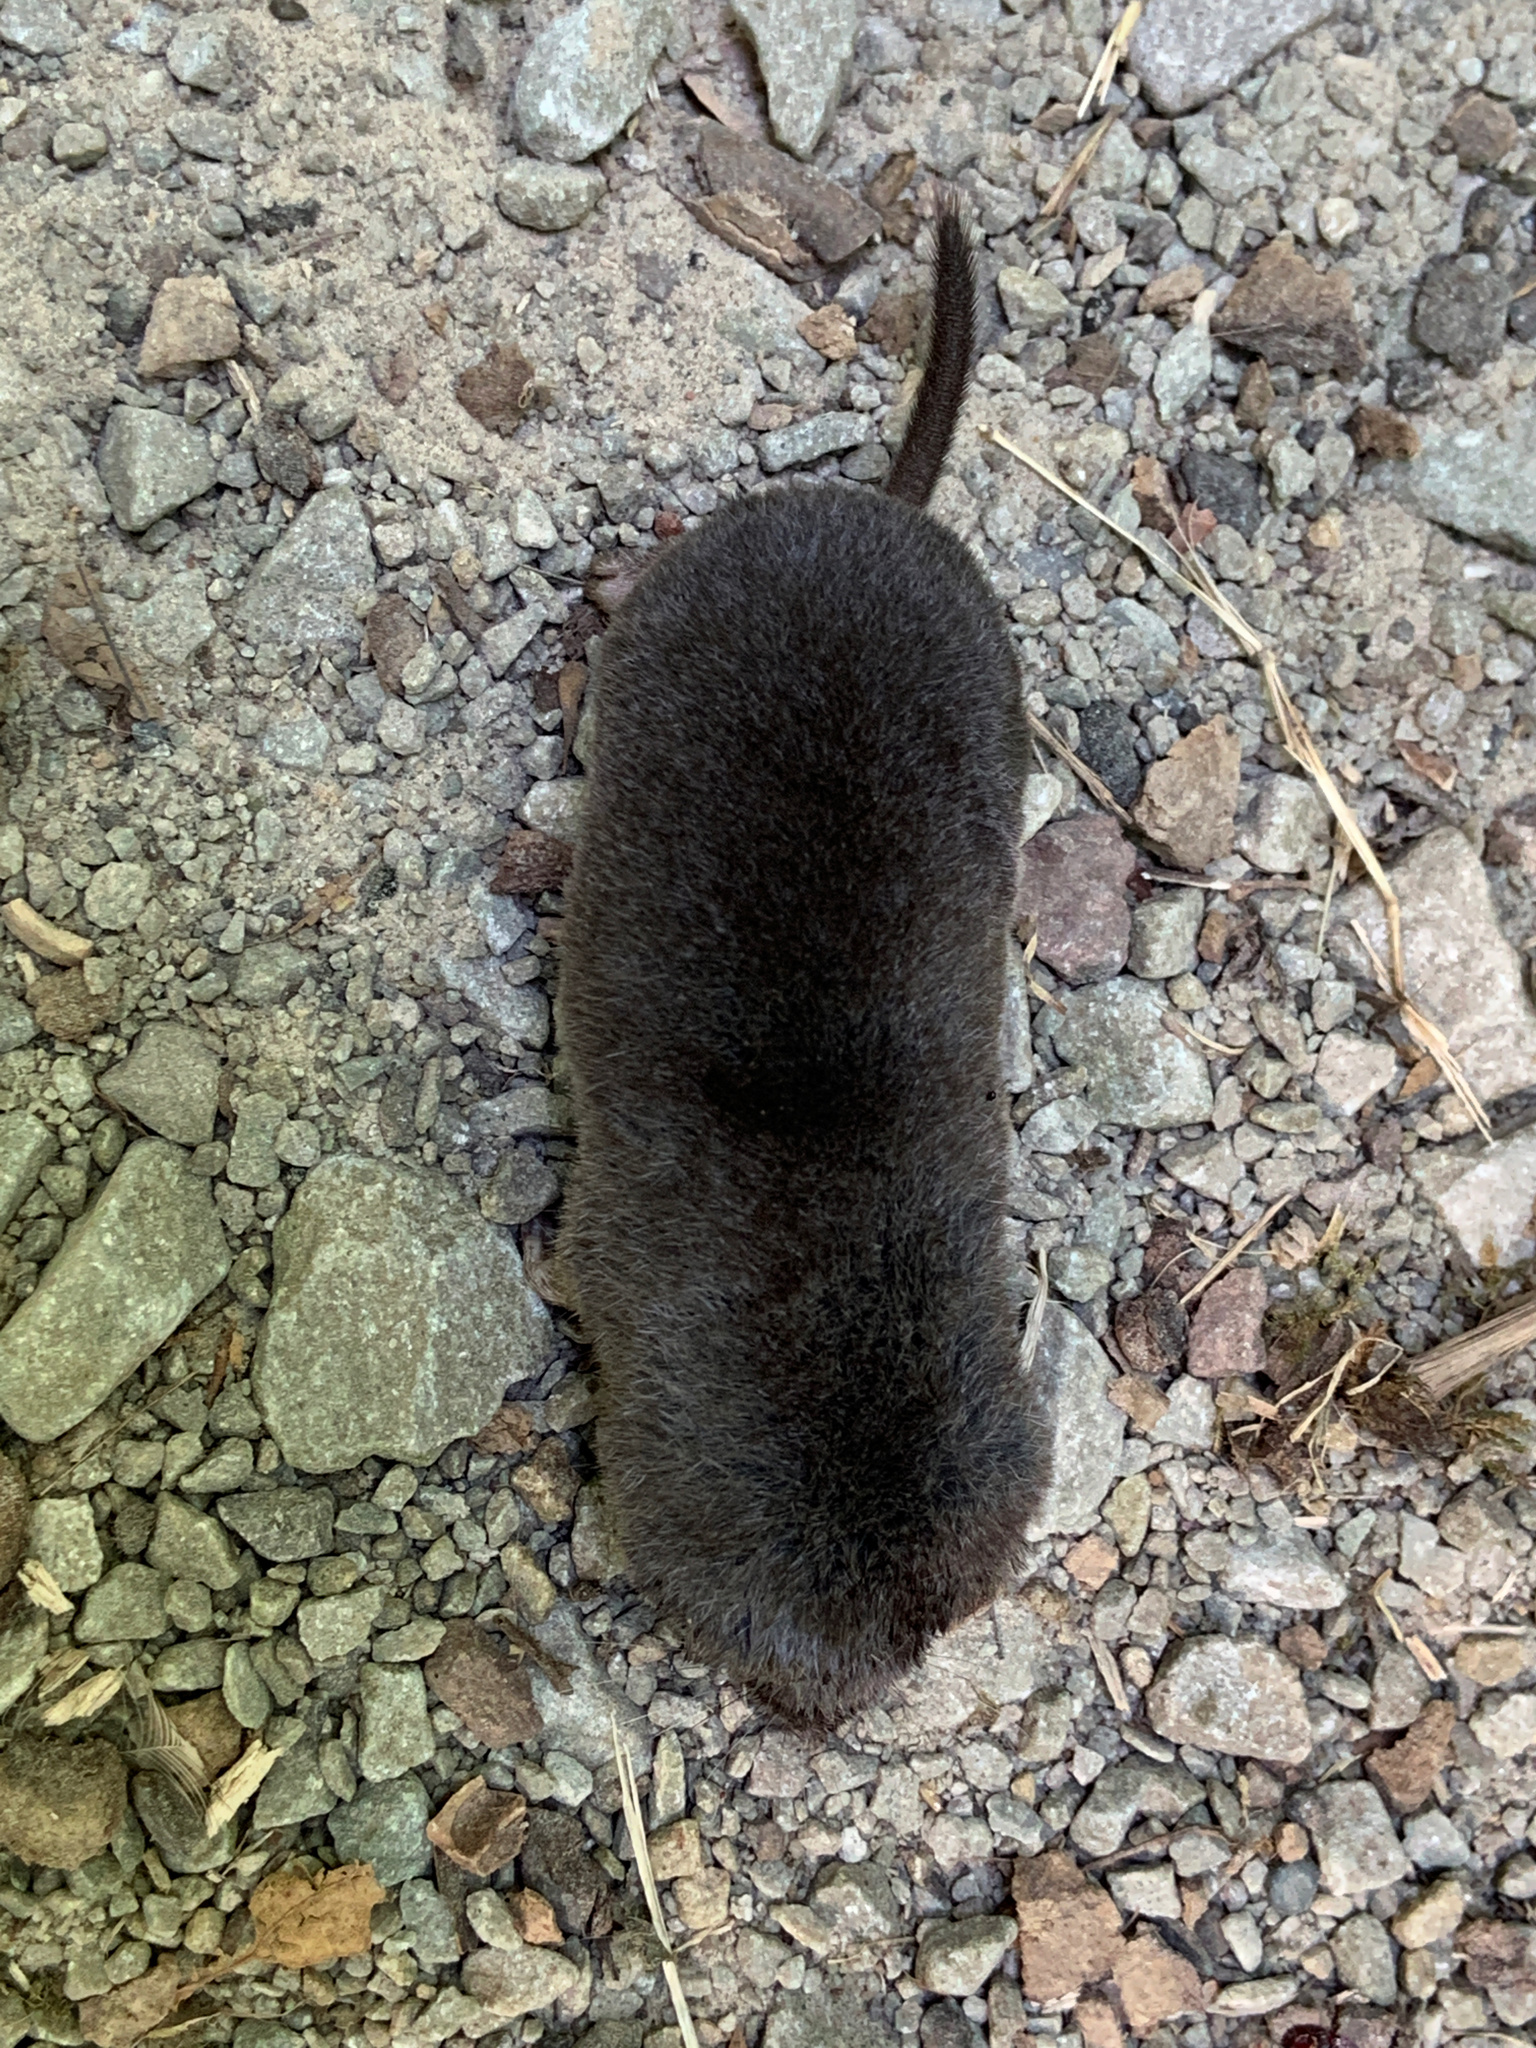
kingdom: Animalia
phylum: Chordata
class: Mammalia
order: Soricomorpha
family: Soricidae
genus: Blarina
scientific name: Blarina brevicauda
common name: Northern short-tailed shrew
